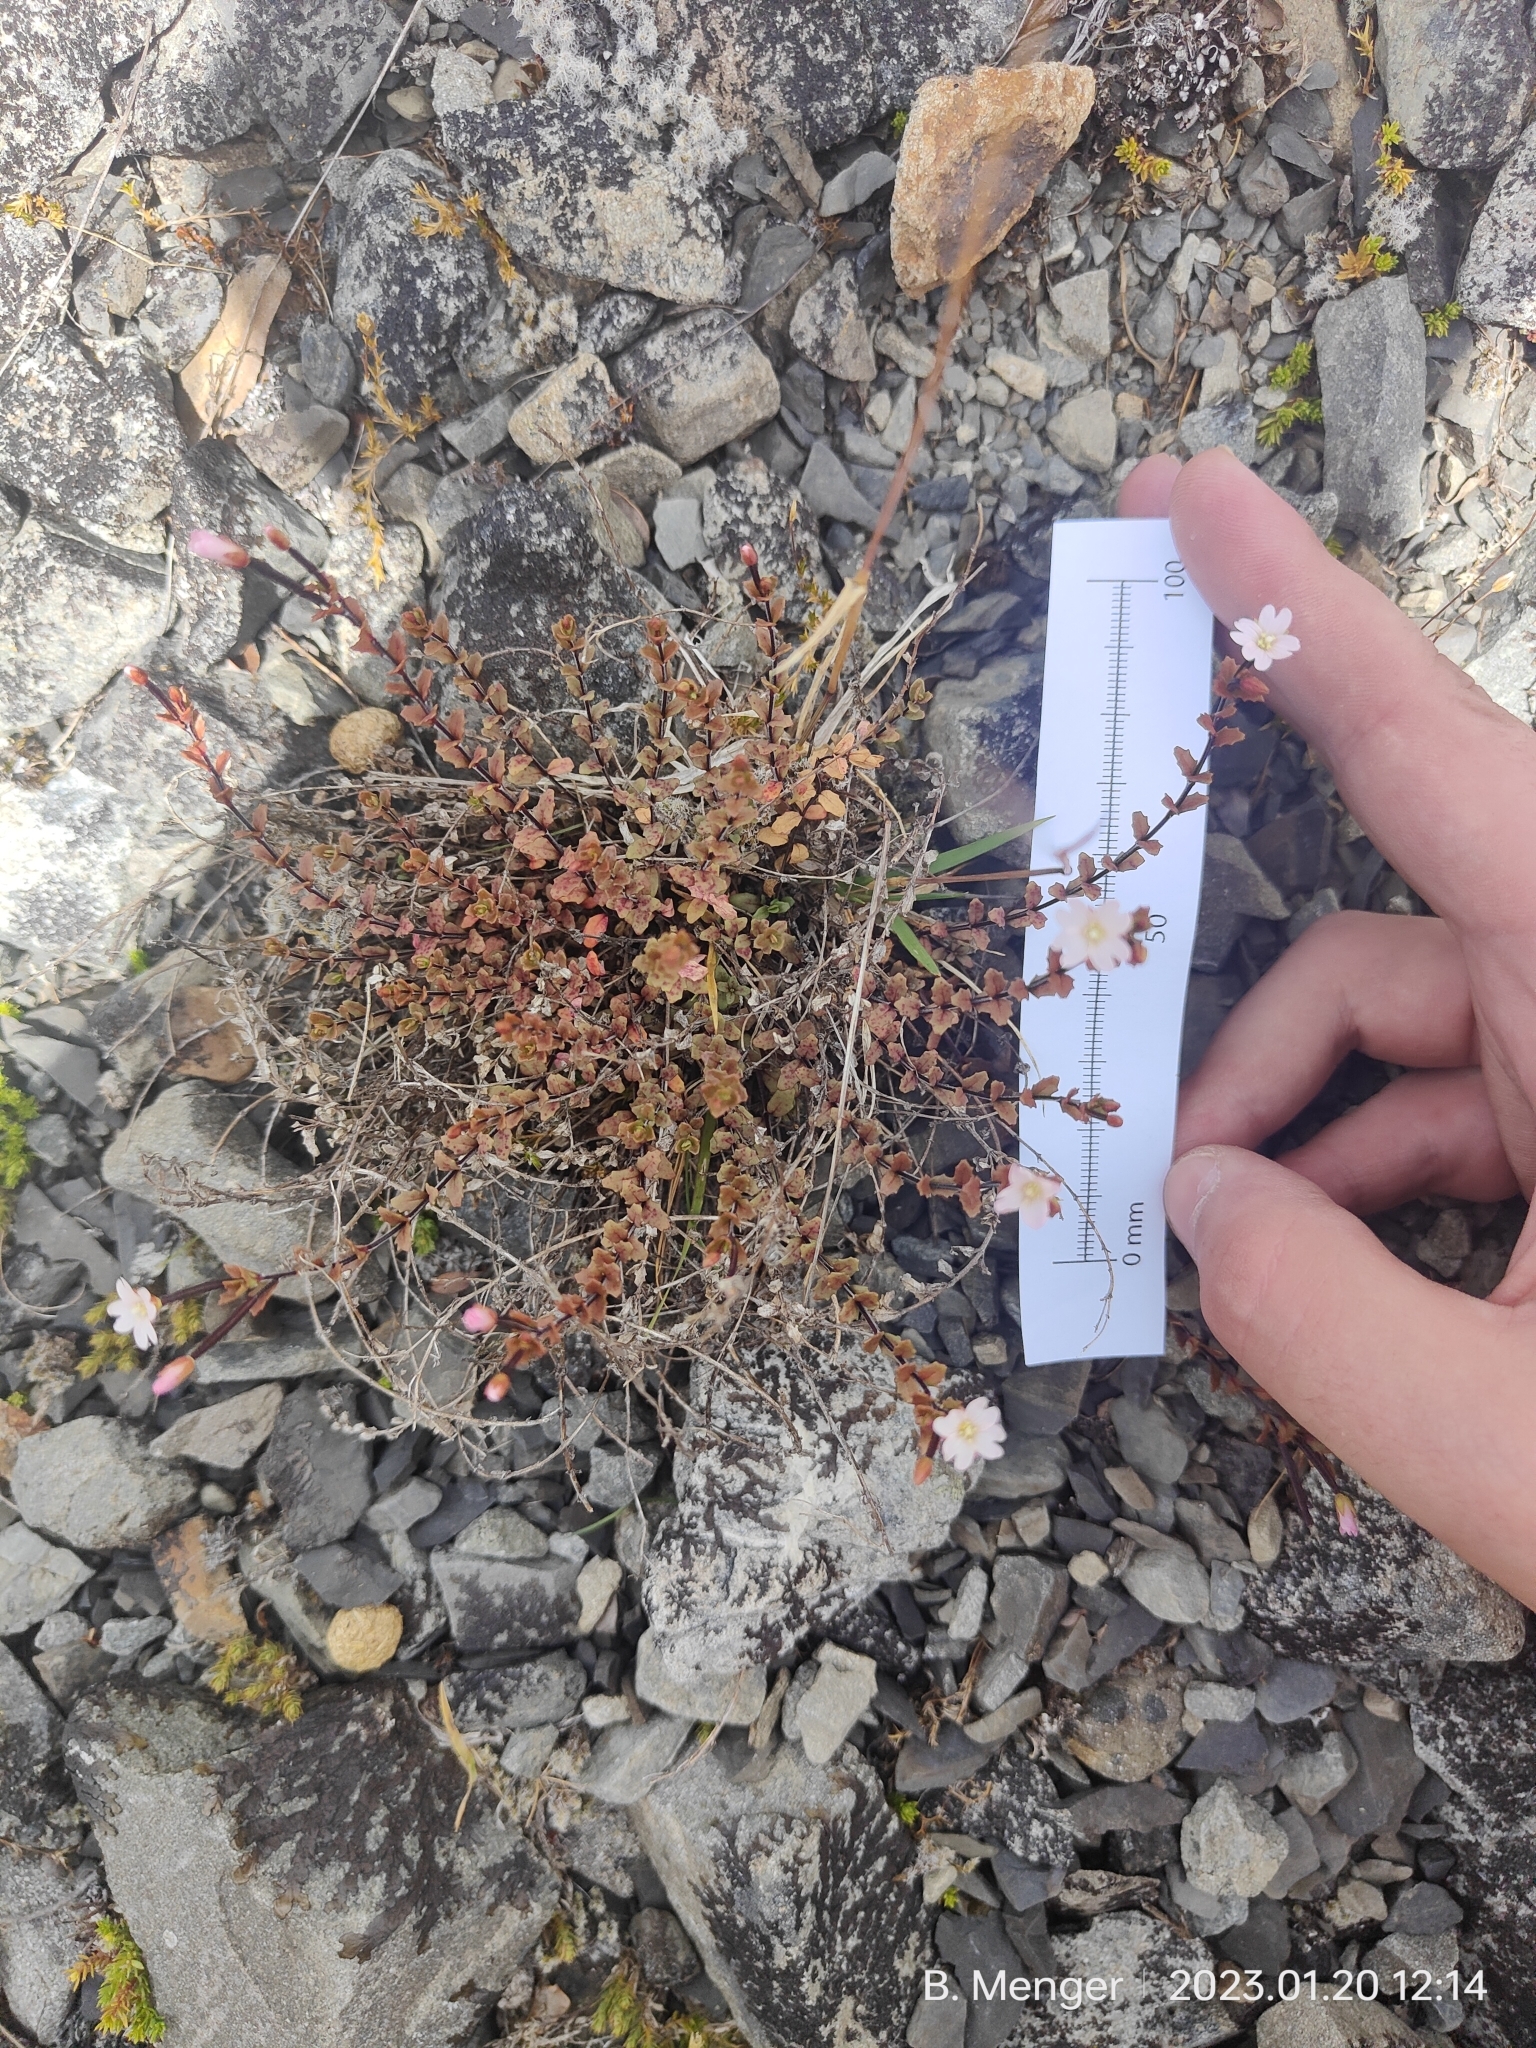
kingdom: Plantae
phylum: Tracheophyta
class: Magnoliopsida
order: Myrtales
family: Onagraceae
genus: Epilobium
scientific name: Epilobium melanocaulon
